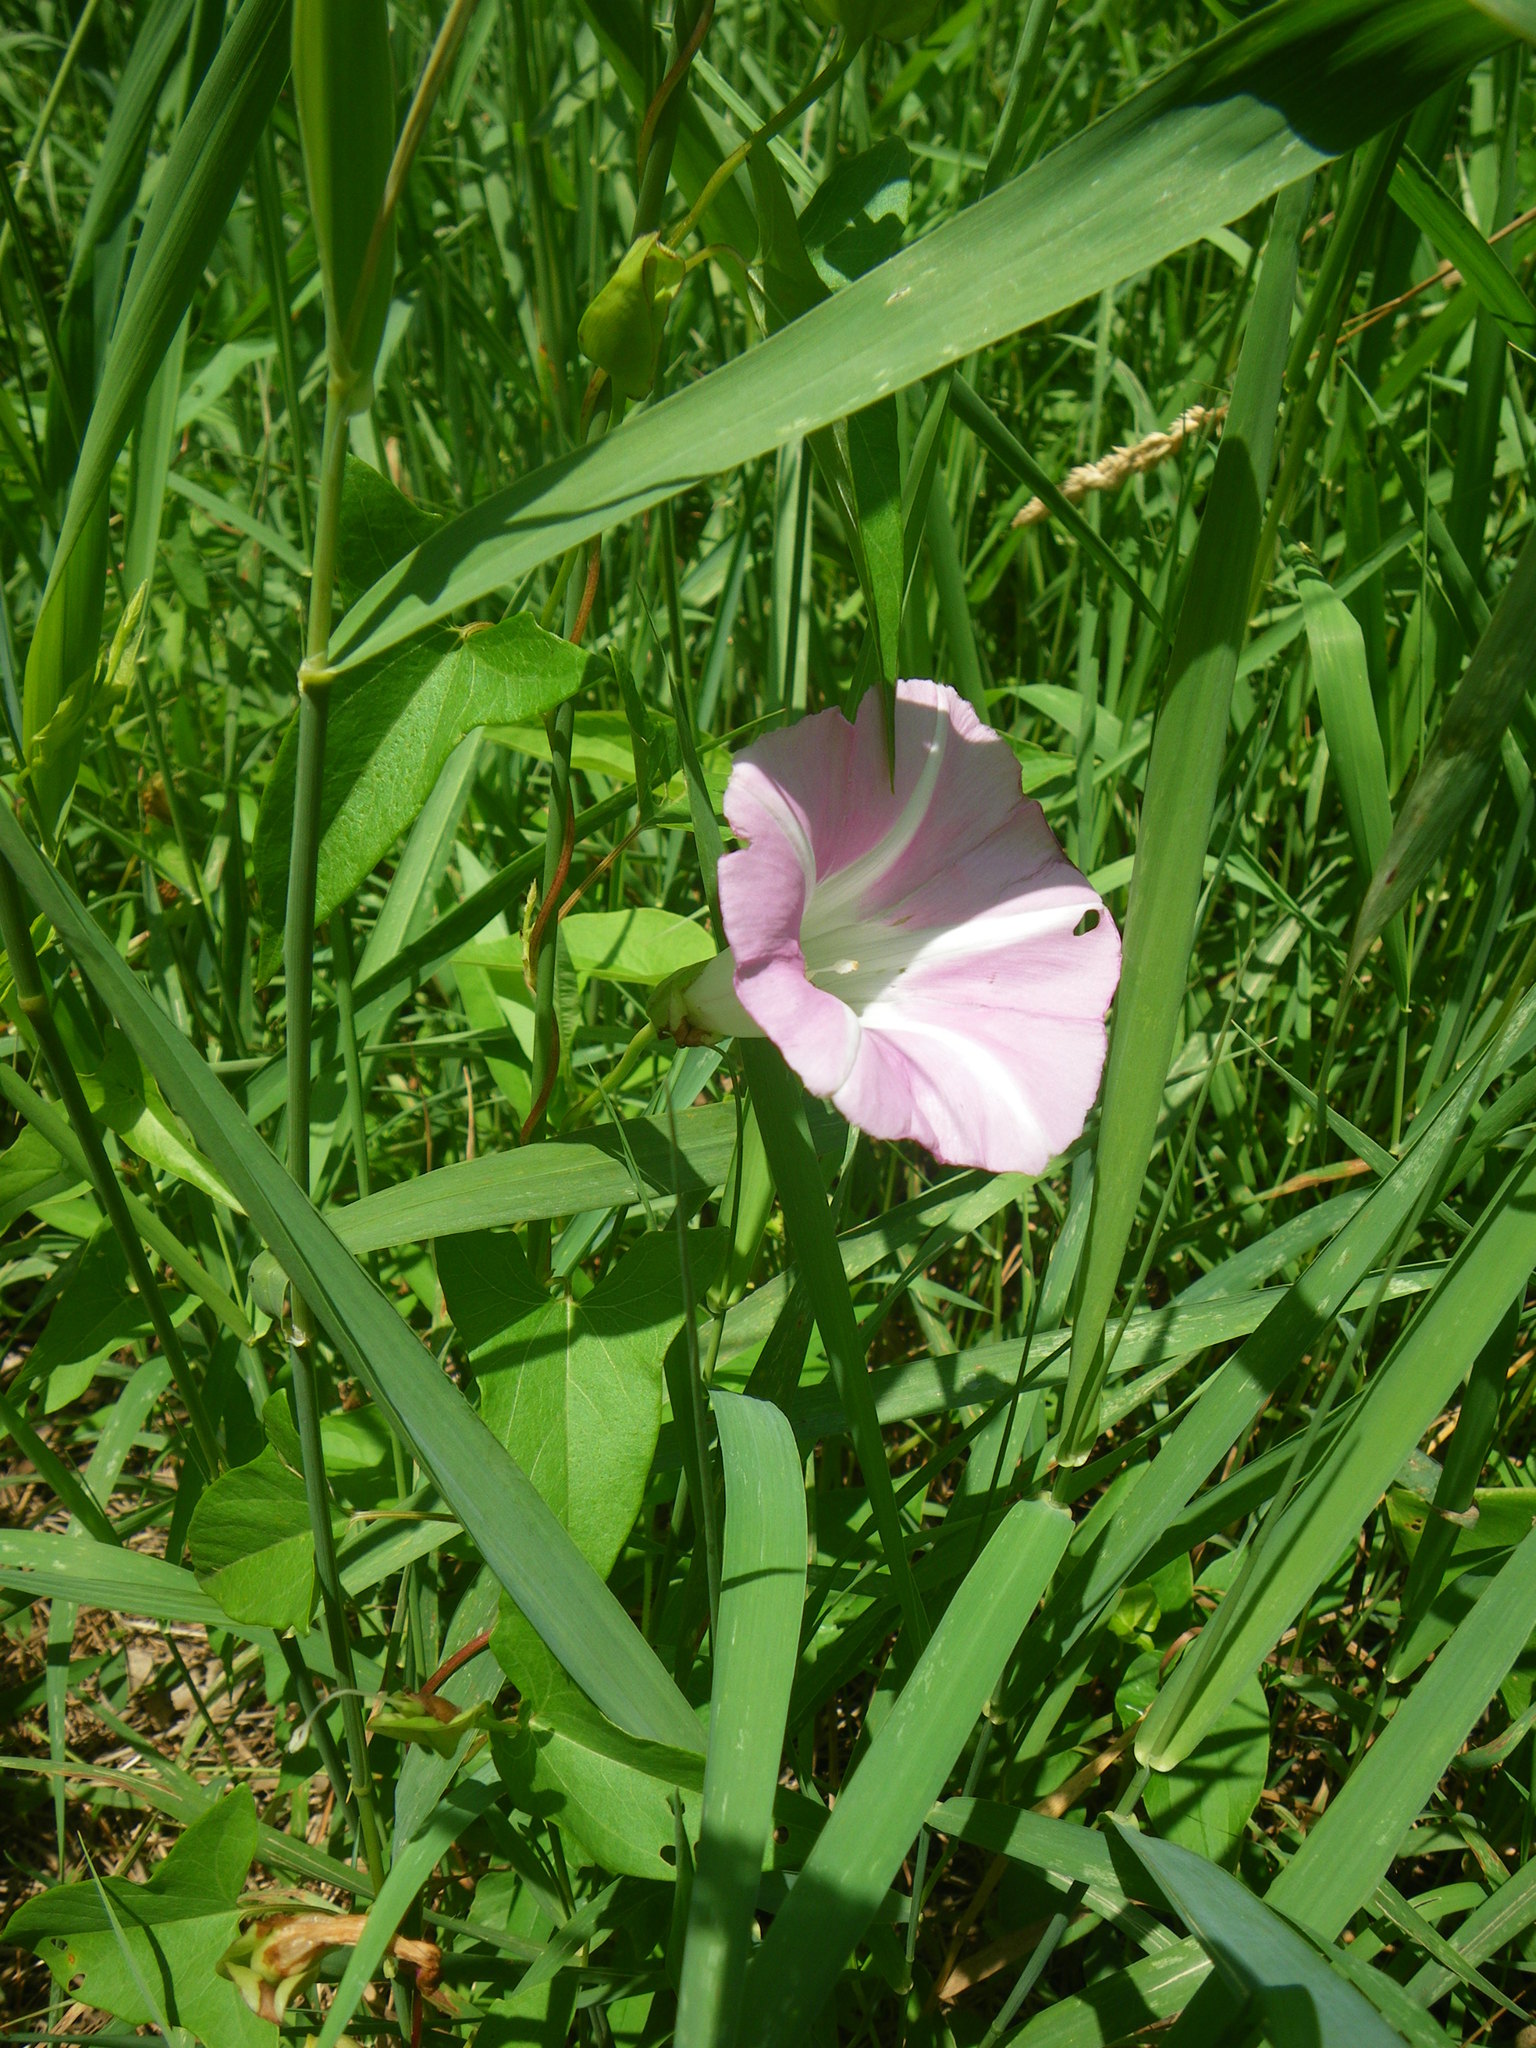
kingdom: Plantae
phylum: Tracheophyta
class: Magnoliopsida
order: Solanales
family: Convolvulaceae
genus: Calystegia
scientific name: Calystegia sepium
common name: Hedge bindweed
